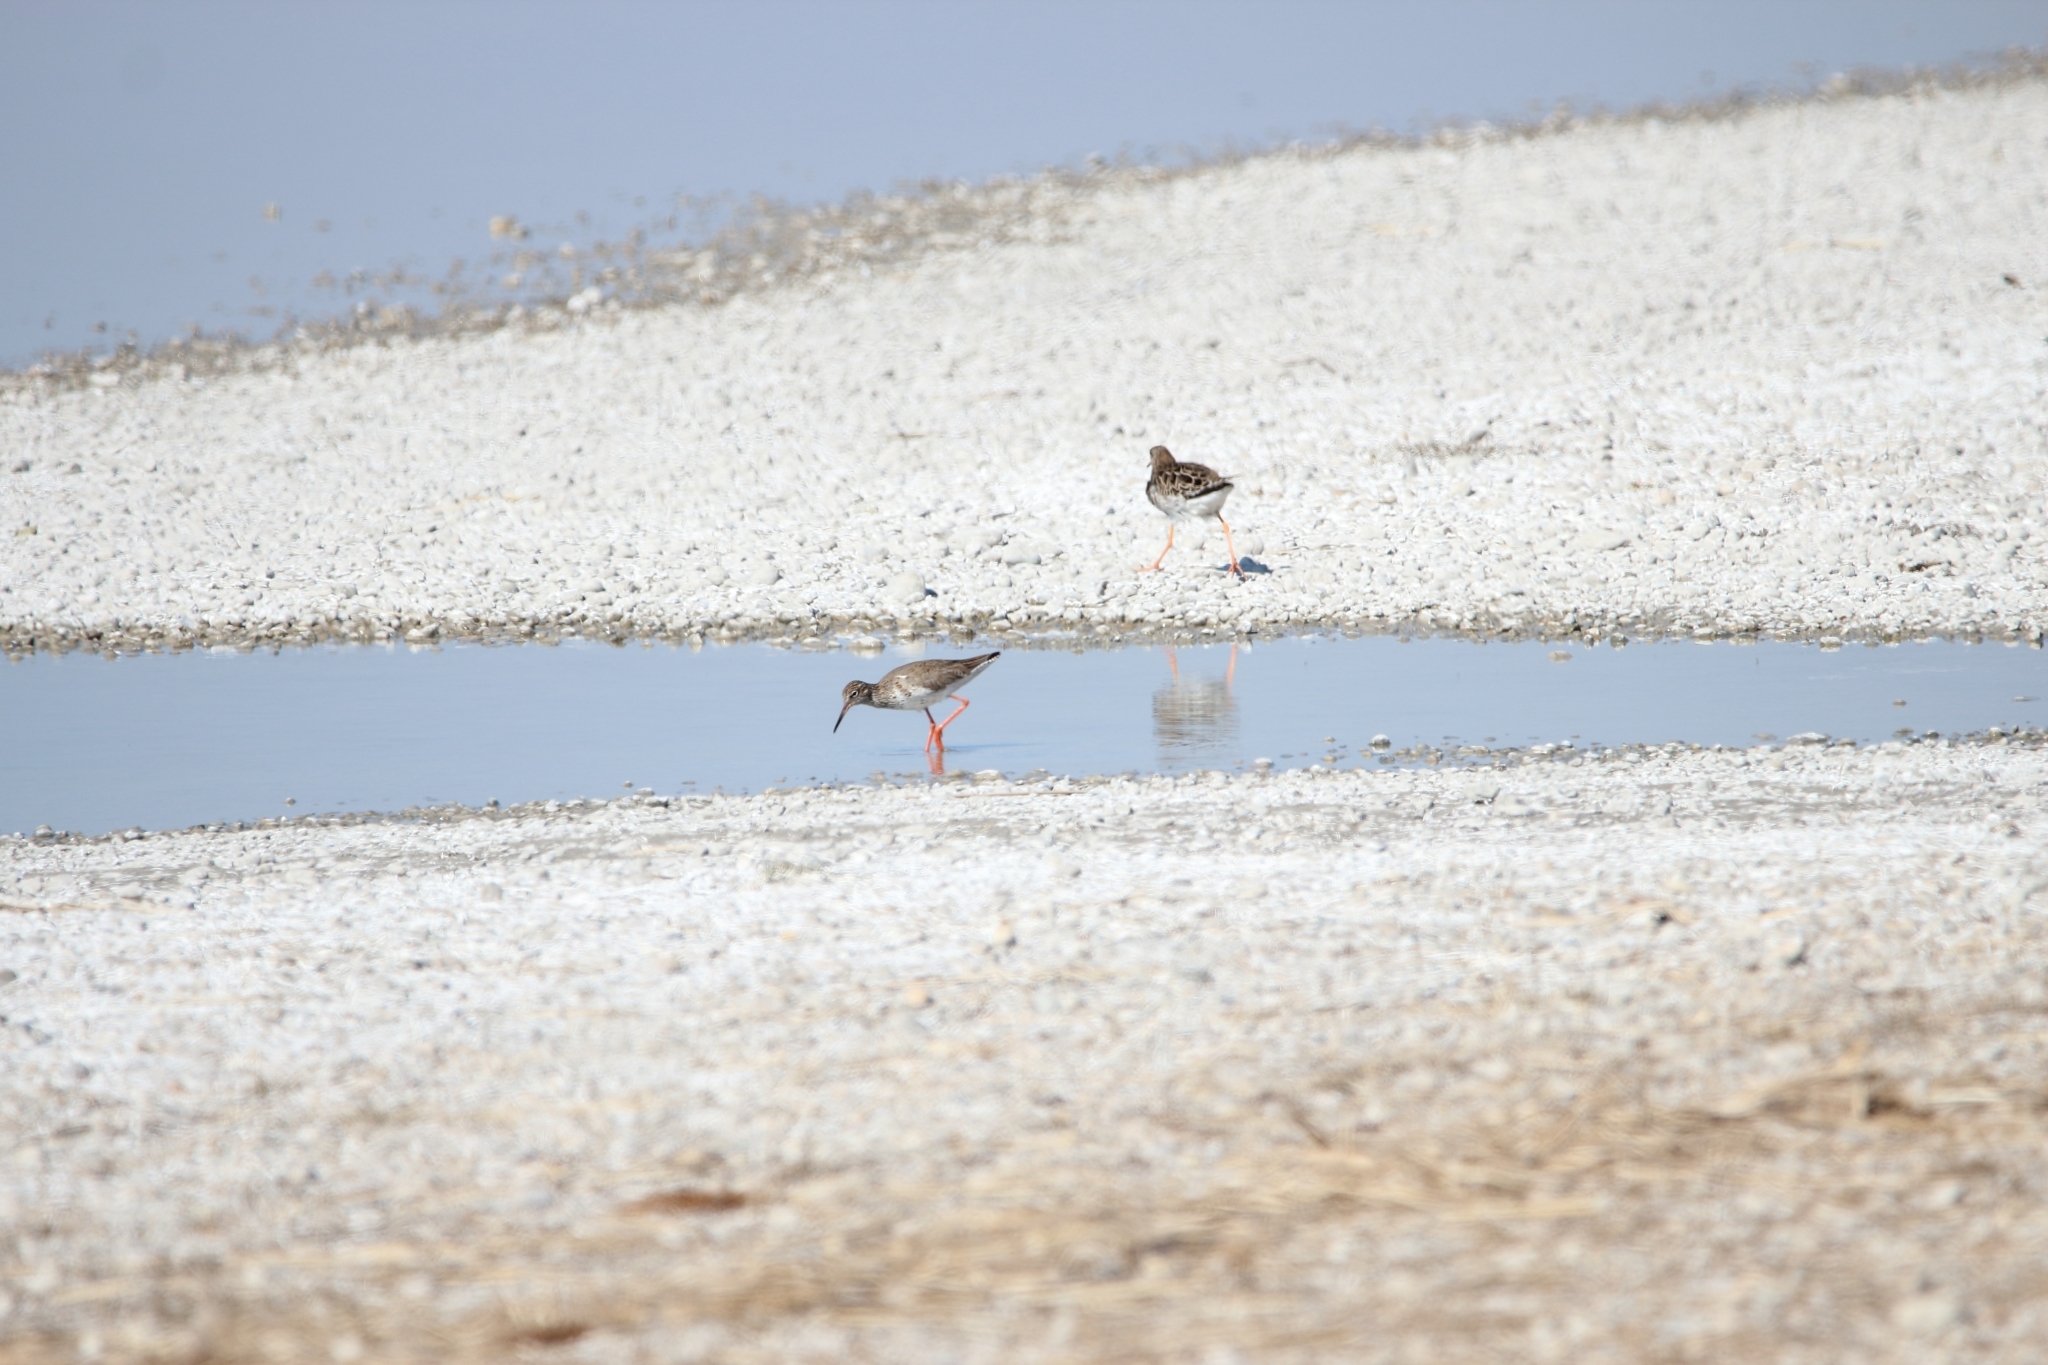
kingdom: Animalia
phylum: Chordata
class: Aves
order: Charadriiformes
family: Scolopacidae
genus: Tringa
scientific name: Tringa totanus
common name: Common redshank
